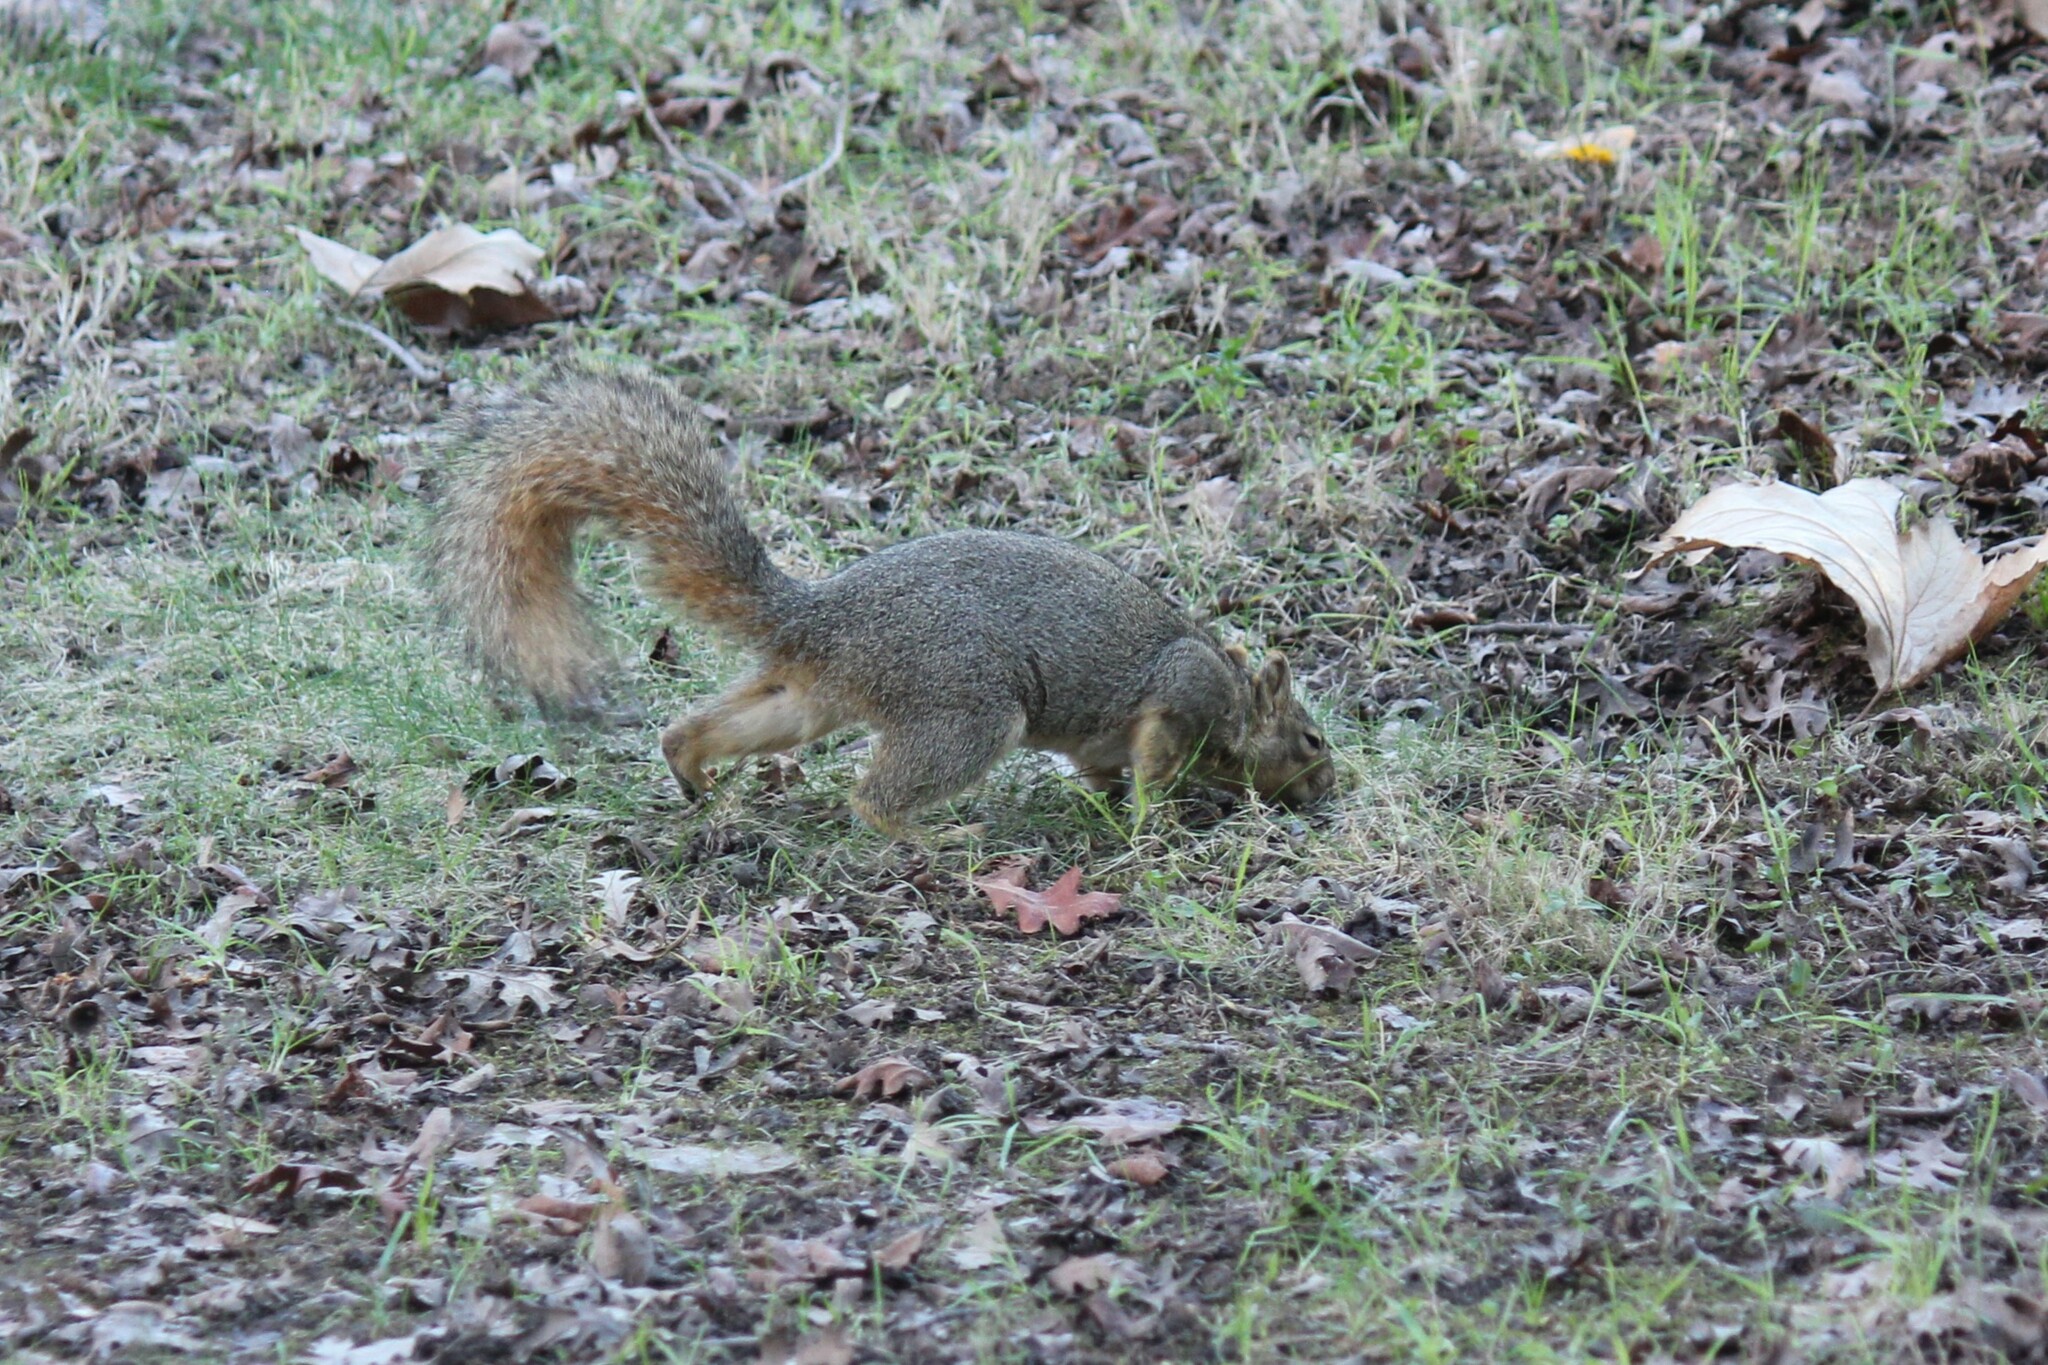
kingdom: Animalia
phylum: Chordata
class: Mammalia
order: Rodentia
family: Sciuridae
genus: Sciurus
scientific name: Sciurus niger
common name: Fox squirrel
